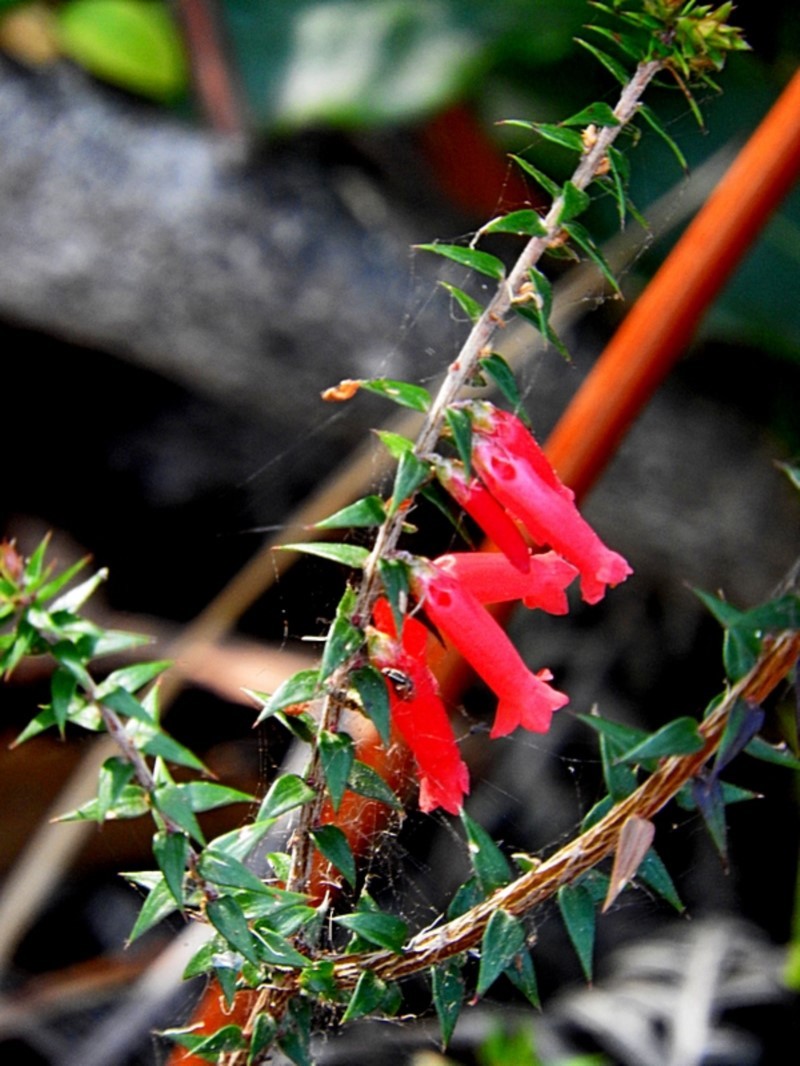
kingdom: Plantae
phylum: Tracheophyta
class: Magnoliopsida
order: Ericales
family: Ericaceae
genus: Epacris
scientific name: Epacris impressa
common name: Common-heath
